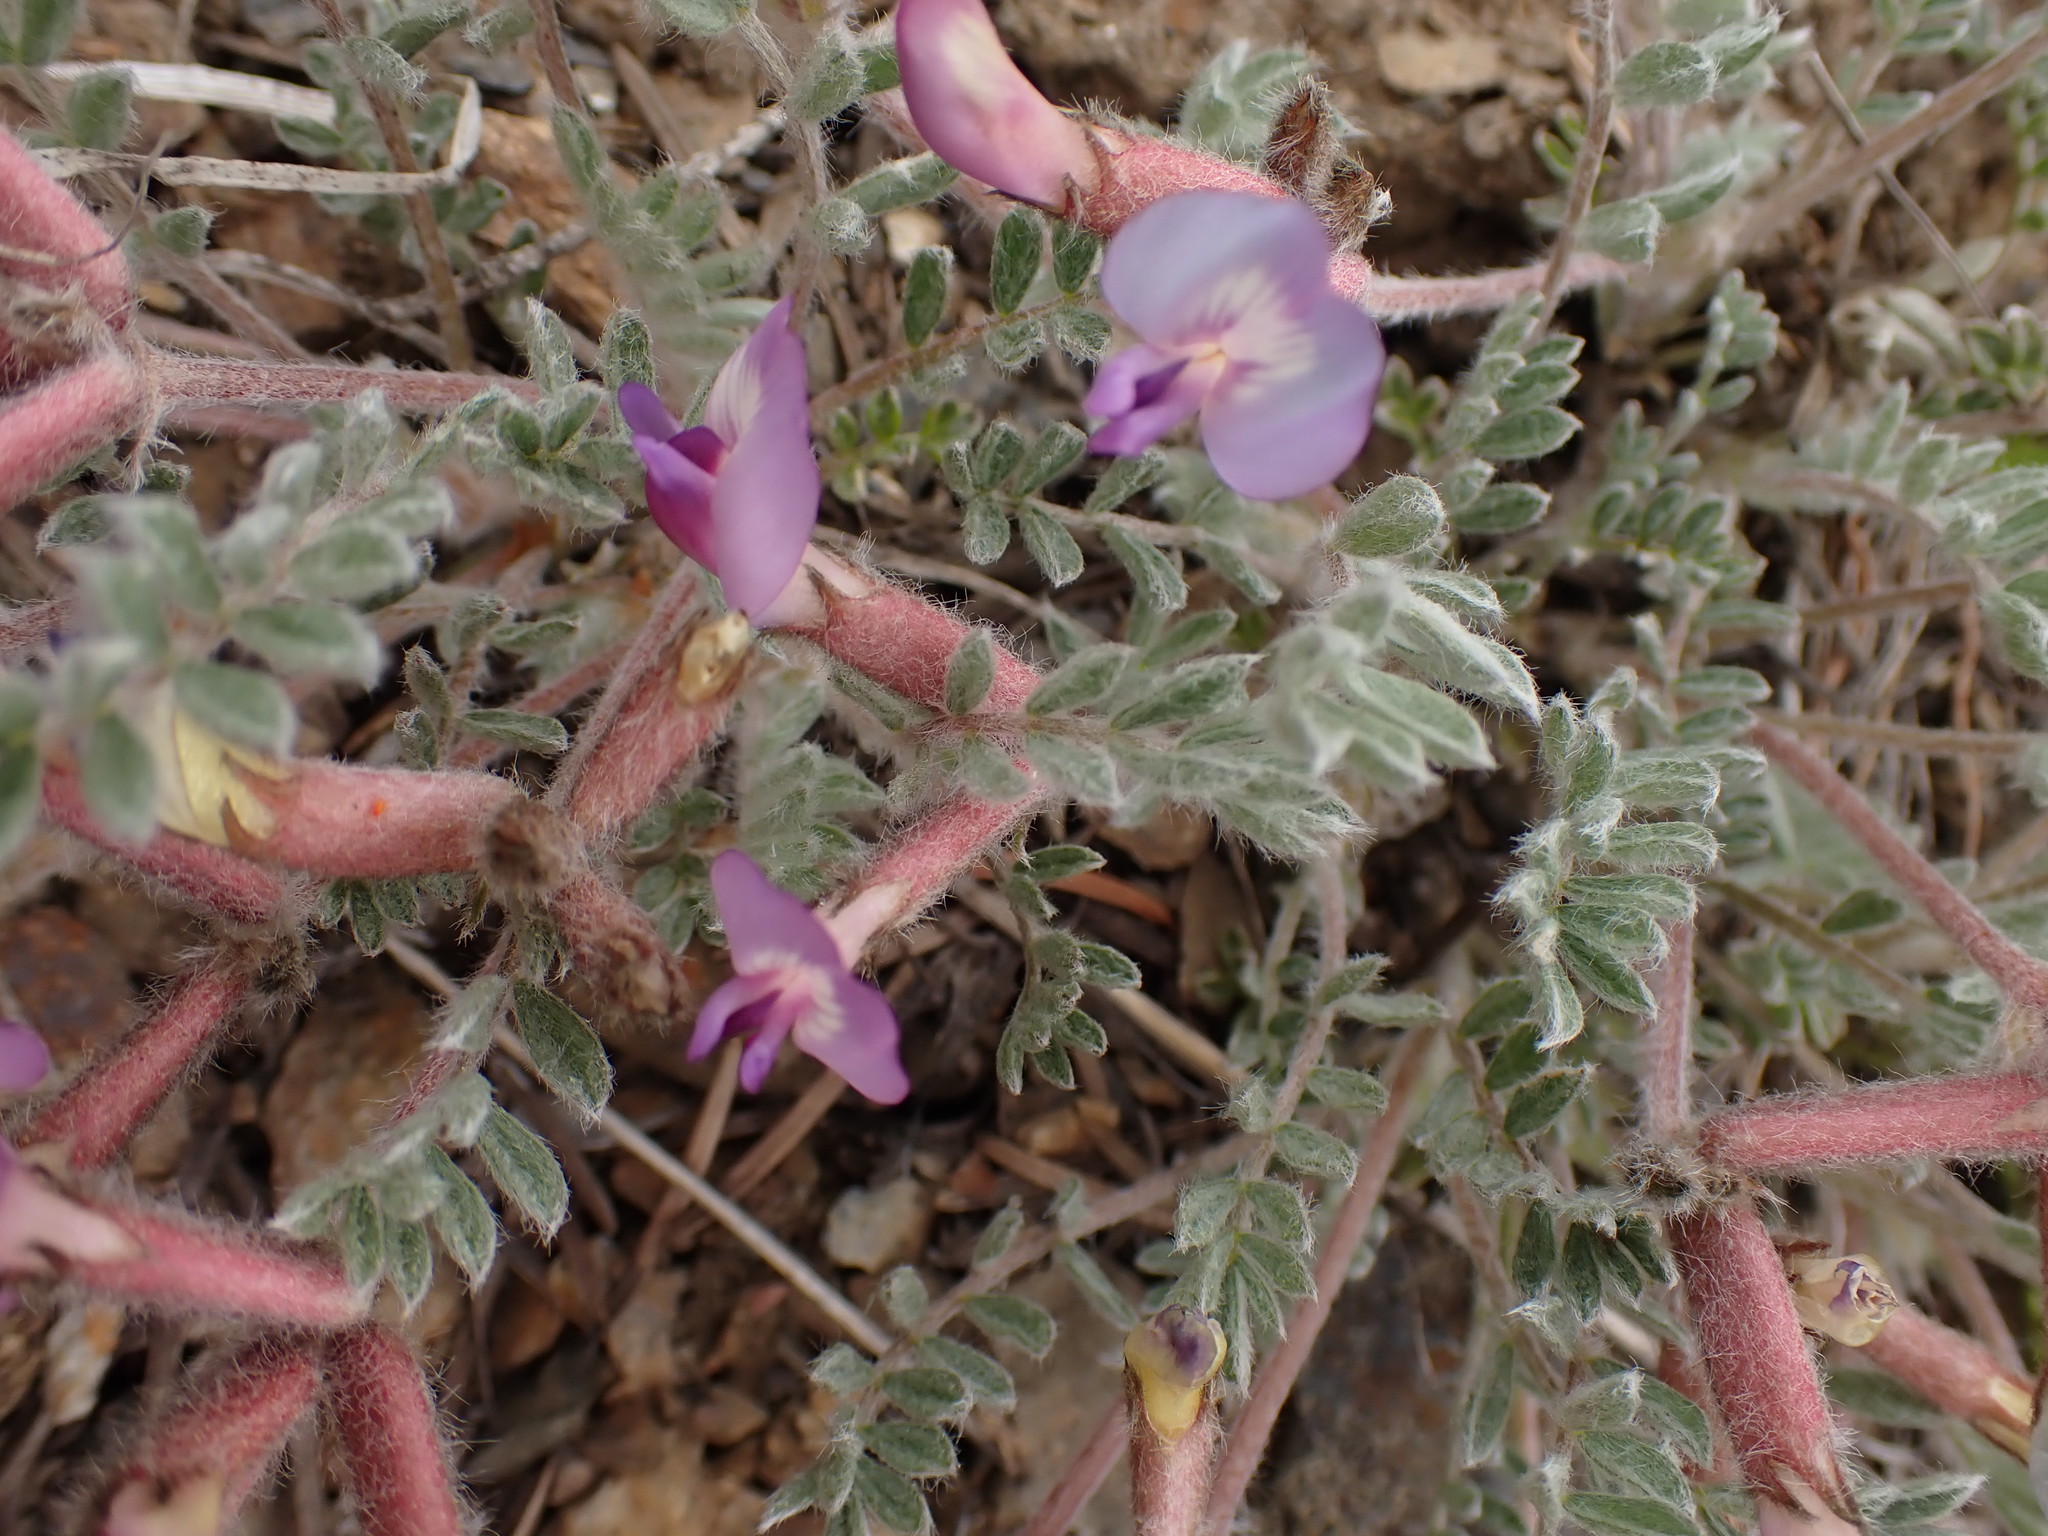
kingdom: Plantae
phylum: Tracheophyta
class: Magnoliopsida
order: Fabales
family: Fabaceae
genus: Astragalus
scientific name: Astragalus purshii
